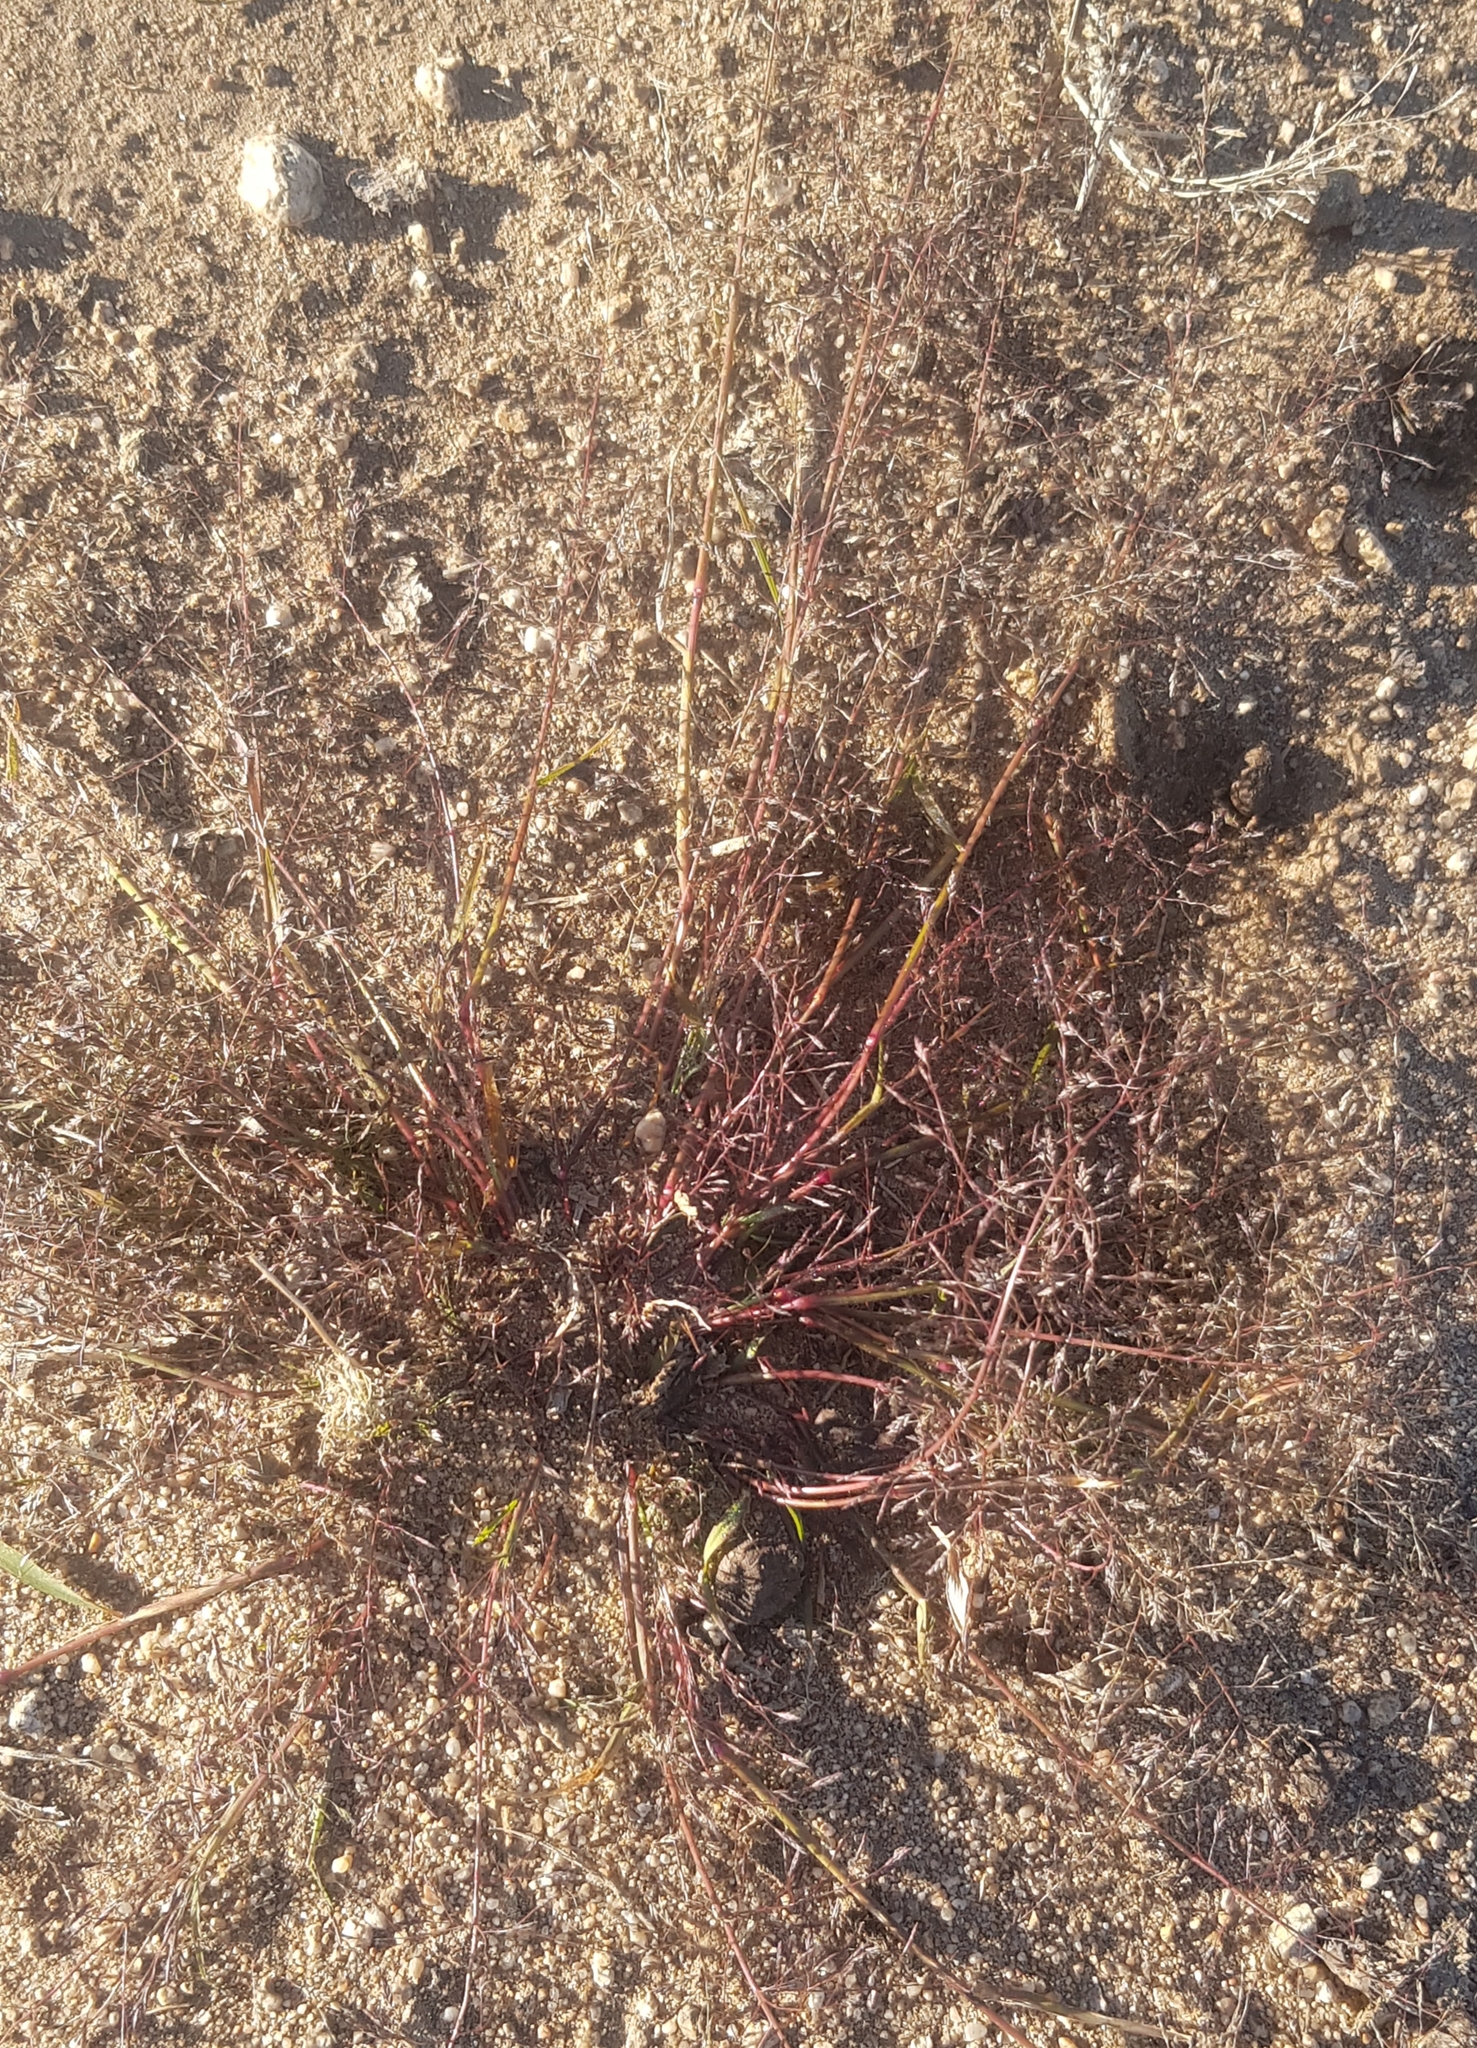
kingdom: Plantae
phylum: Tracheophyta
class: Liliopsida
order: Poales
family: Poaceae
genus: Eragrostis
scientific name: Eragrostis minor
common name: Small love-grass
